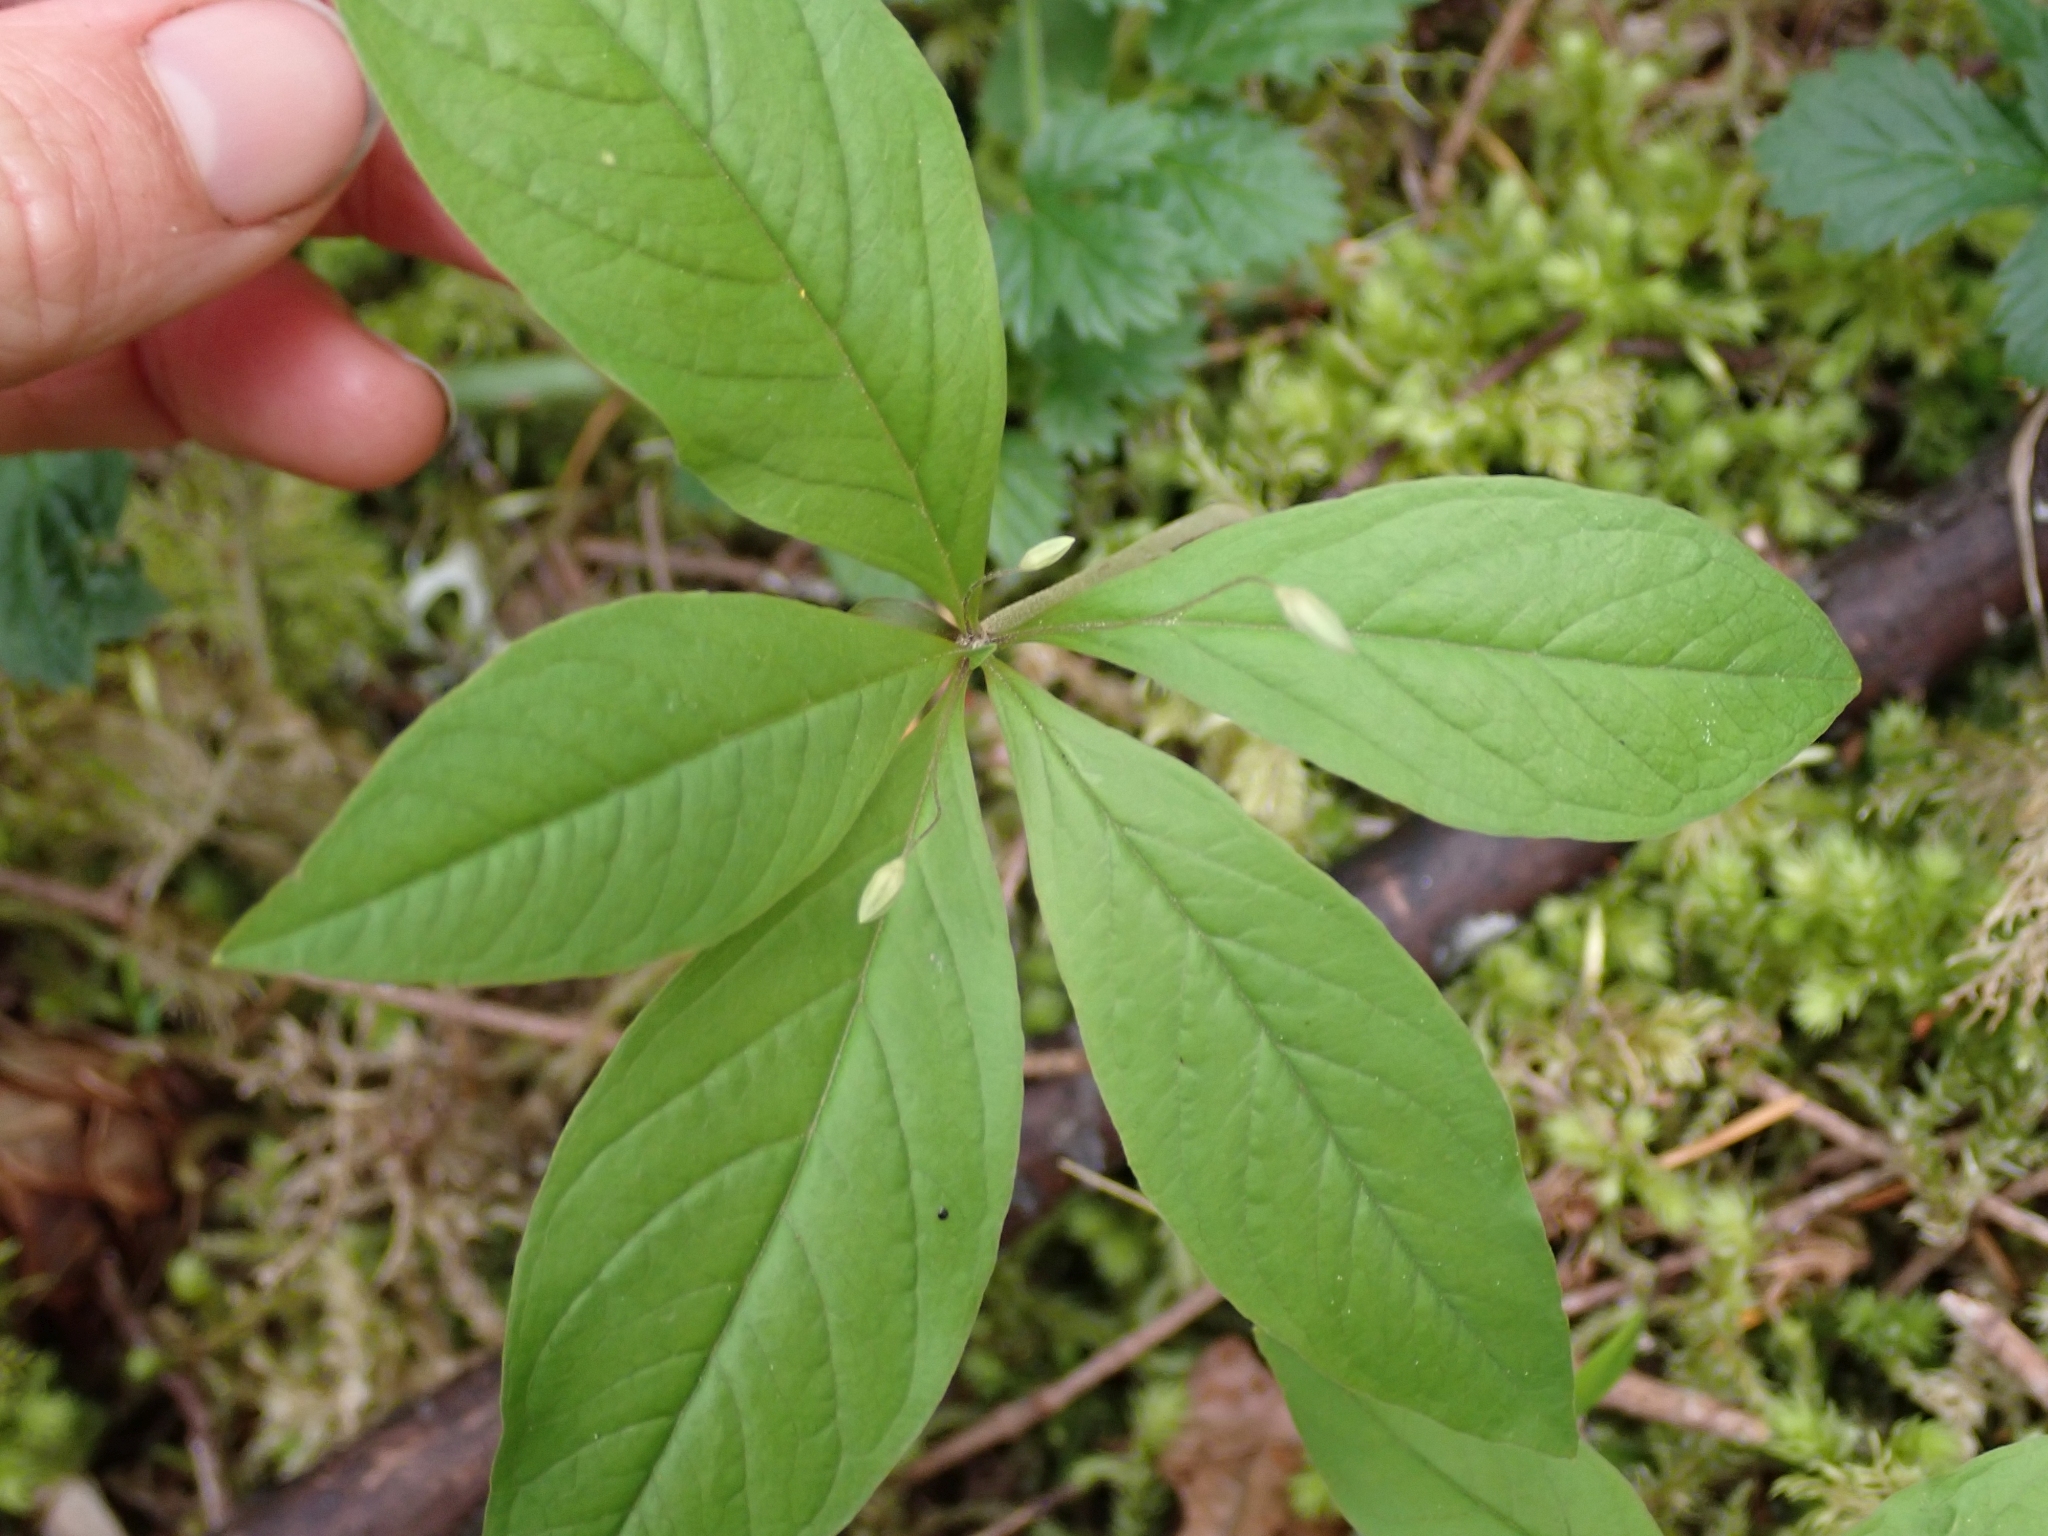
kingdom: Plantae
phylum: Tracheophyta
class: Magnoliopsida
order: Ericales
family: Primulaceae
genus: Lysimachia
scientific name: Lysimachia latifolia
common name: Pacific starflower
